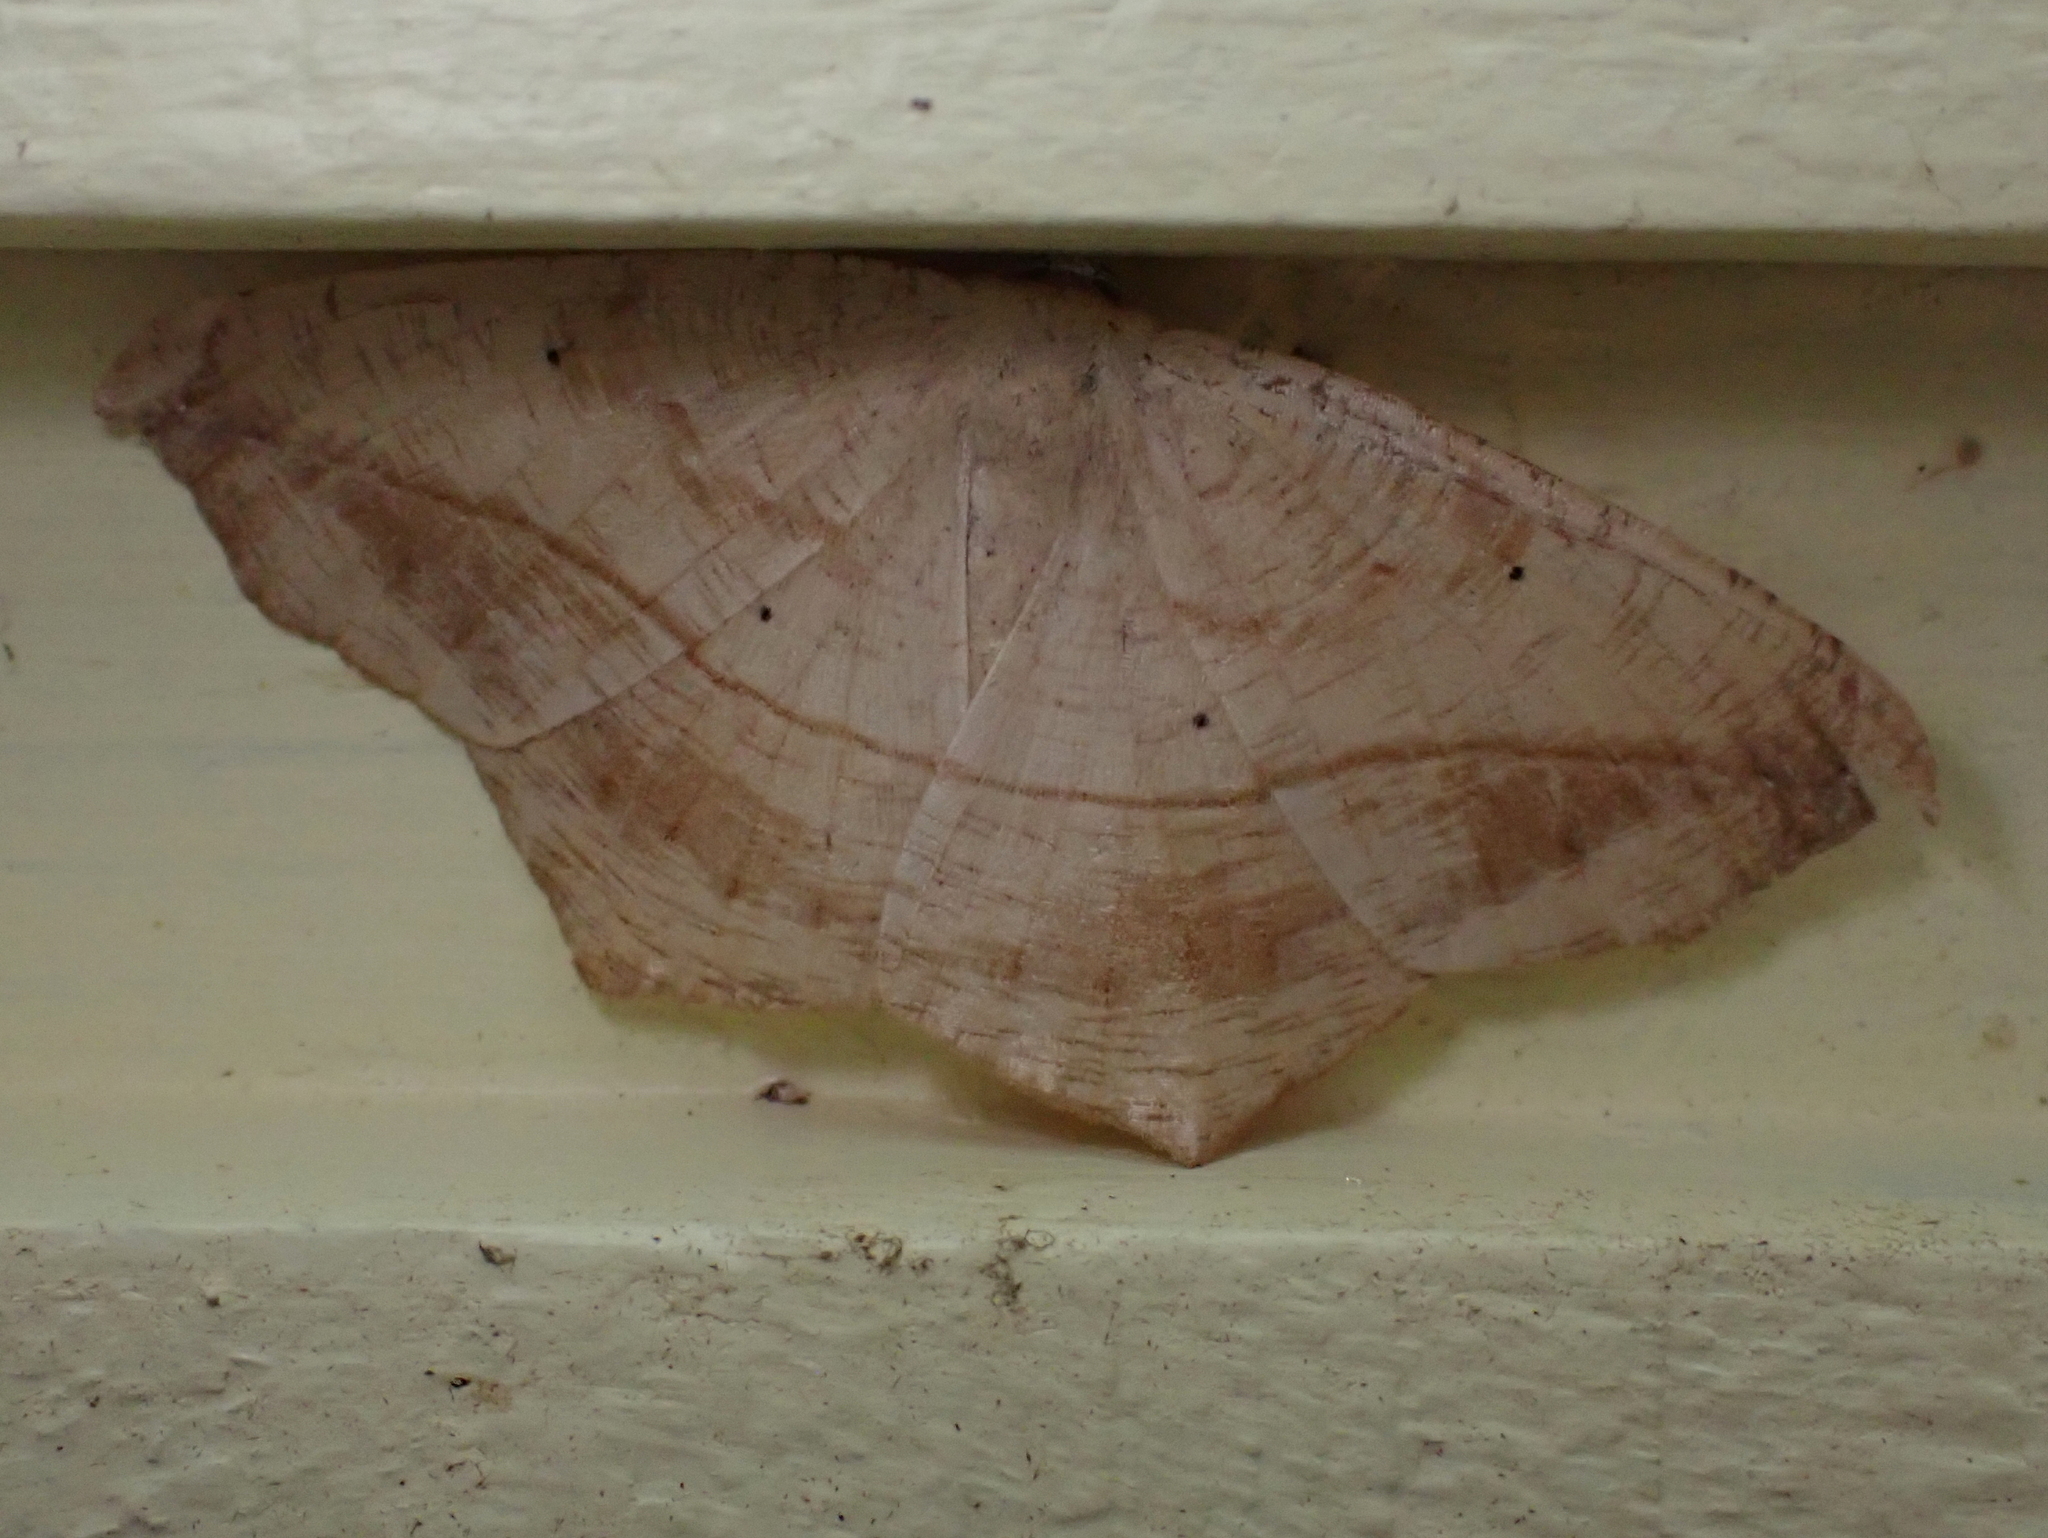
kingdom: Animalia
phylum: Arthropoda
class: Insecta
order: Lepidoptera
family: Geometridae
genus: Prochoerodes
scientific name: Prochoerodes lineola
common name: Large maple spanworm
